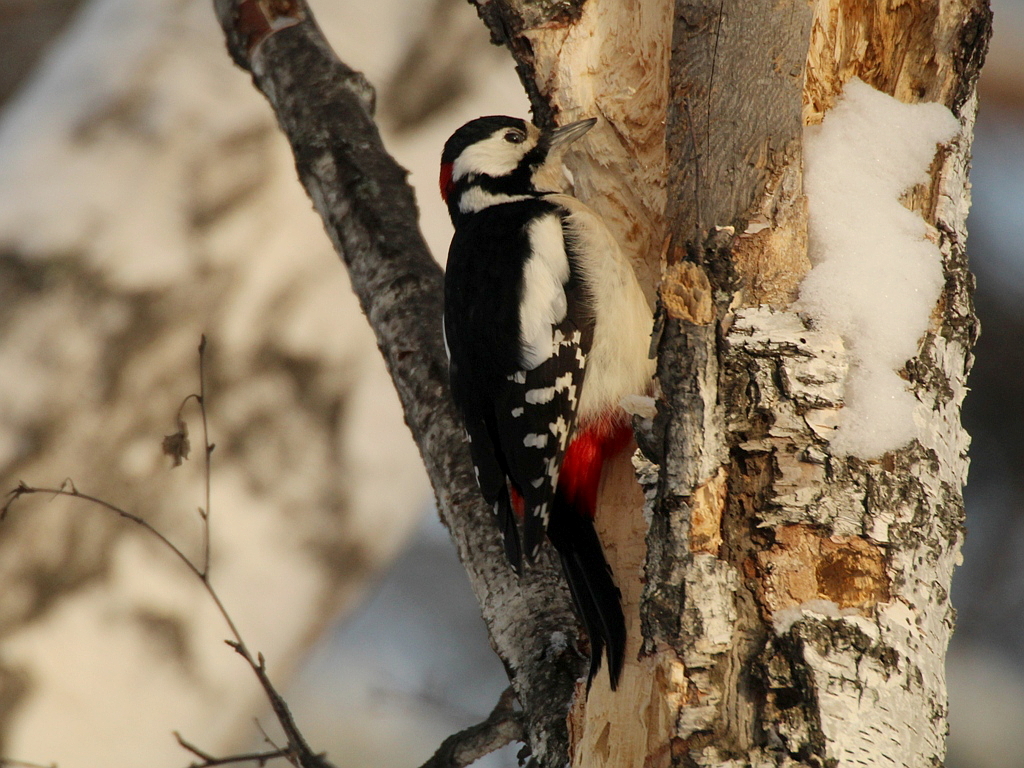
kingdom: Animalia
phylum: Chordata
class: Aves
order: Piciformes
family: Picidae
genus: Dendrocopos
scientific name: Dendrocopos major
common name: Great spotted woodpecker
